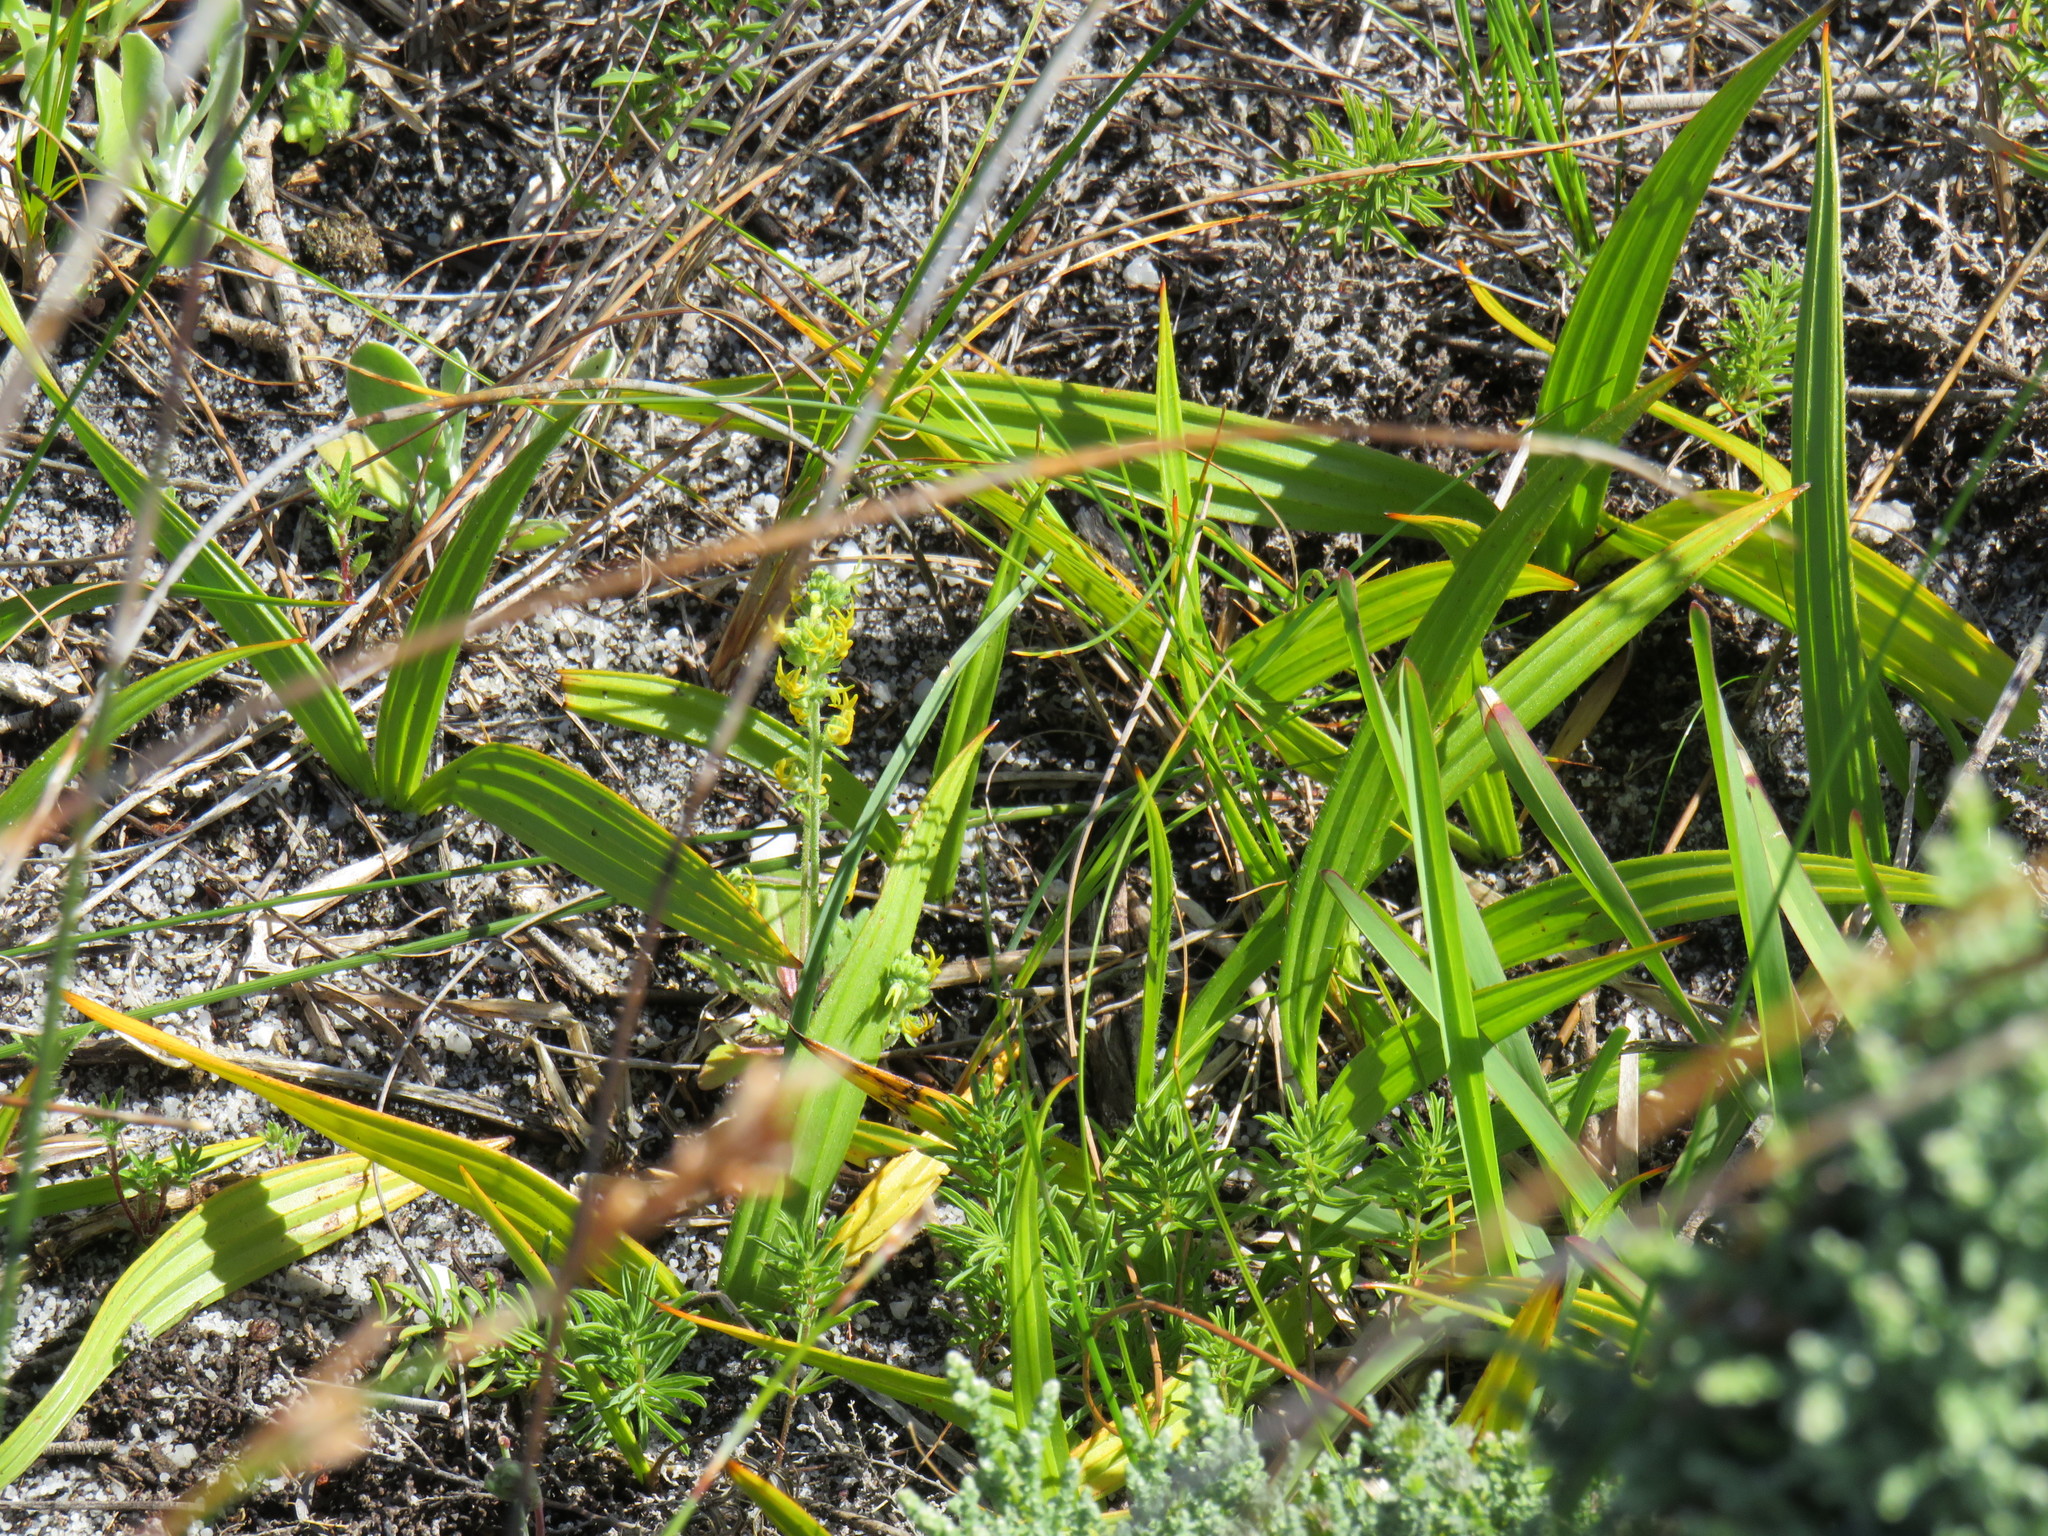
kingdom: Plantae
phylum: Tracheophyta
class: Liliopsida
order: Commelinales
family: Haemodoraceae
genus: Wachendorfia
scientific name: Wachendorfia paniculata
